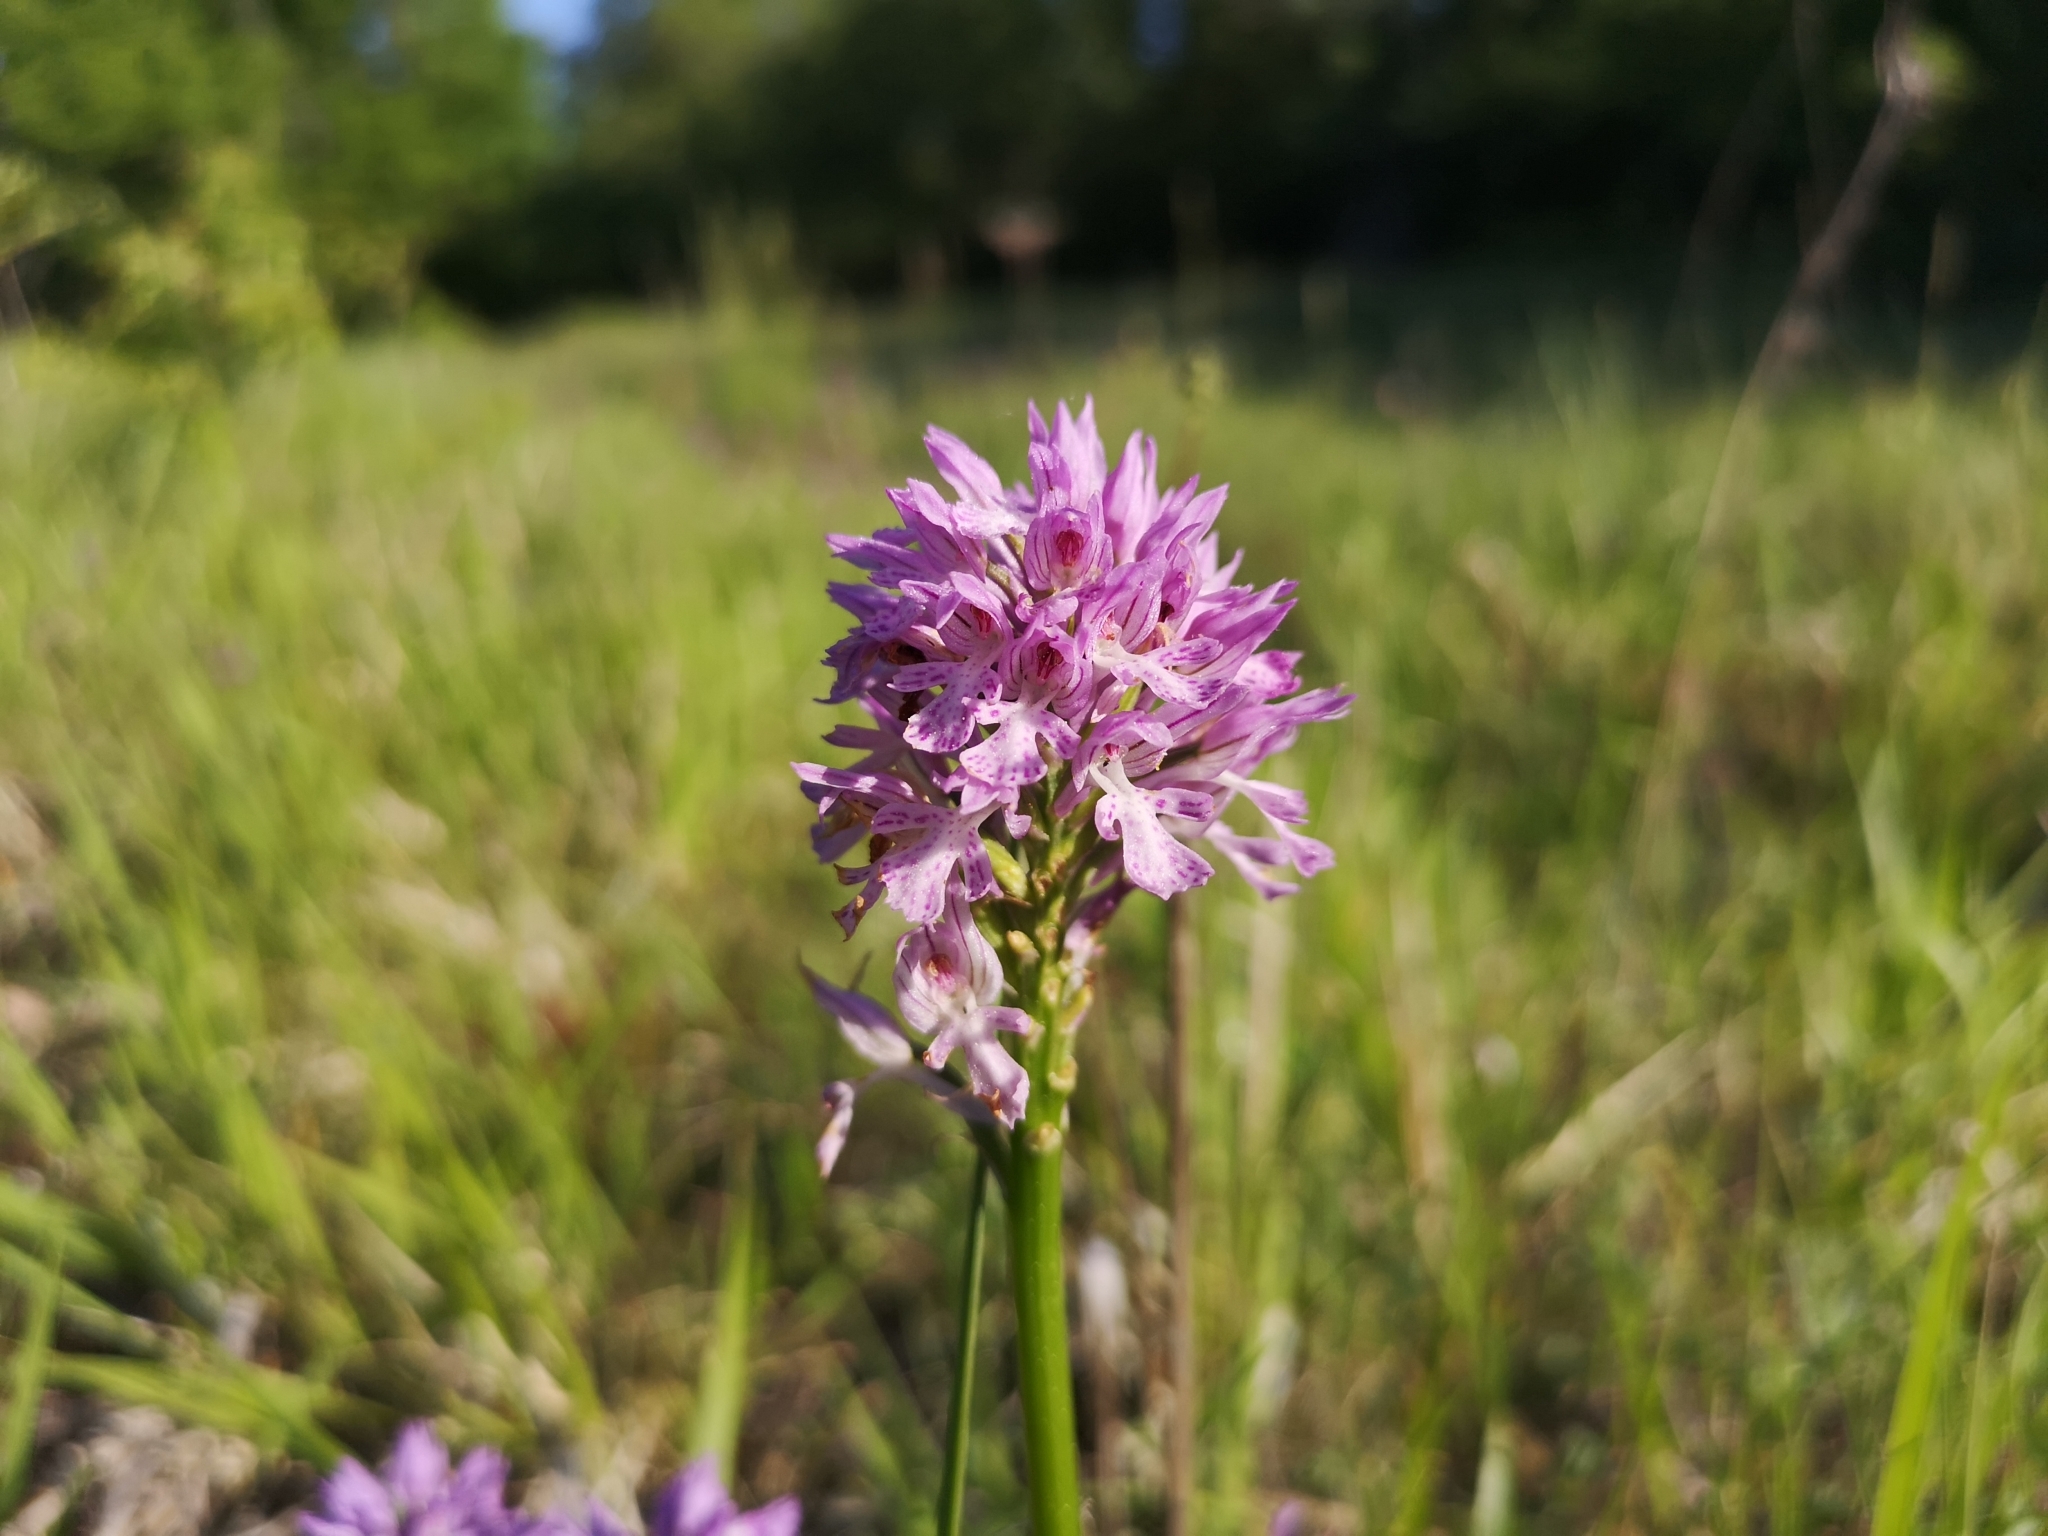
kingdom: Plantae
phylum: Tracheophyta
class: Liliopsida
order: Asparagales
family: Orchidaceae
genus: Neotinea
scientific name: Neotinea tridentata
